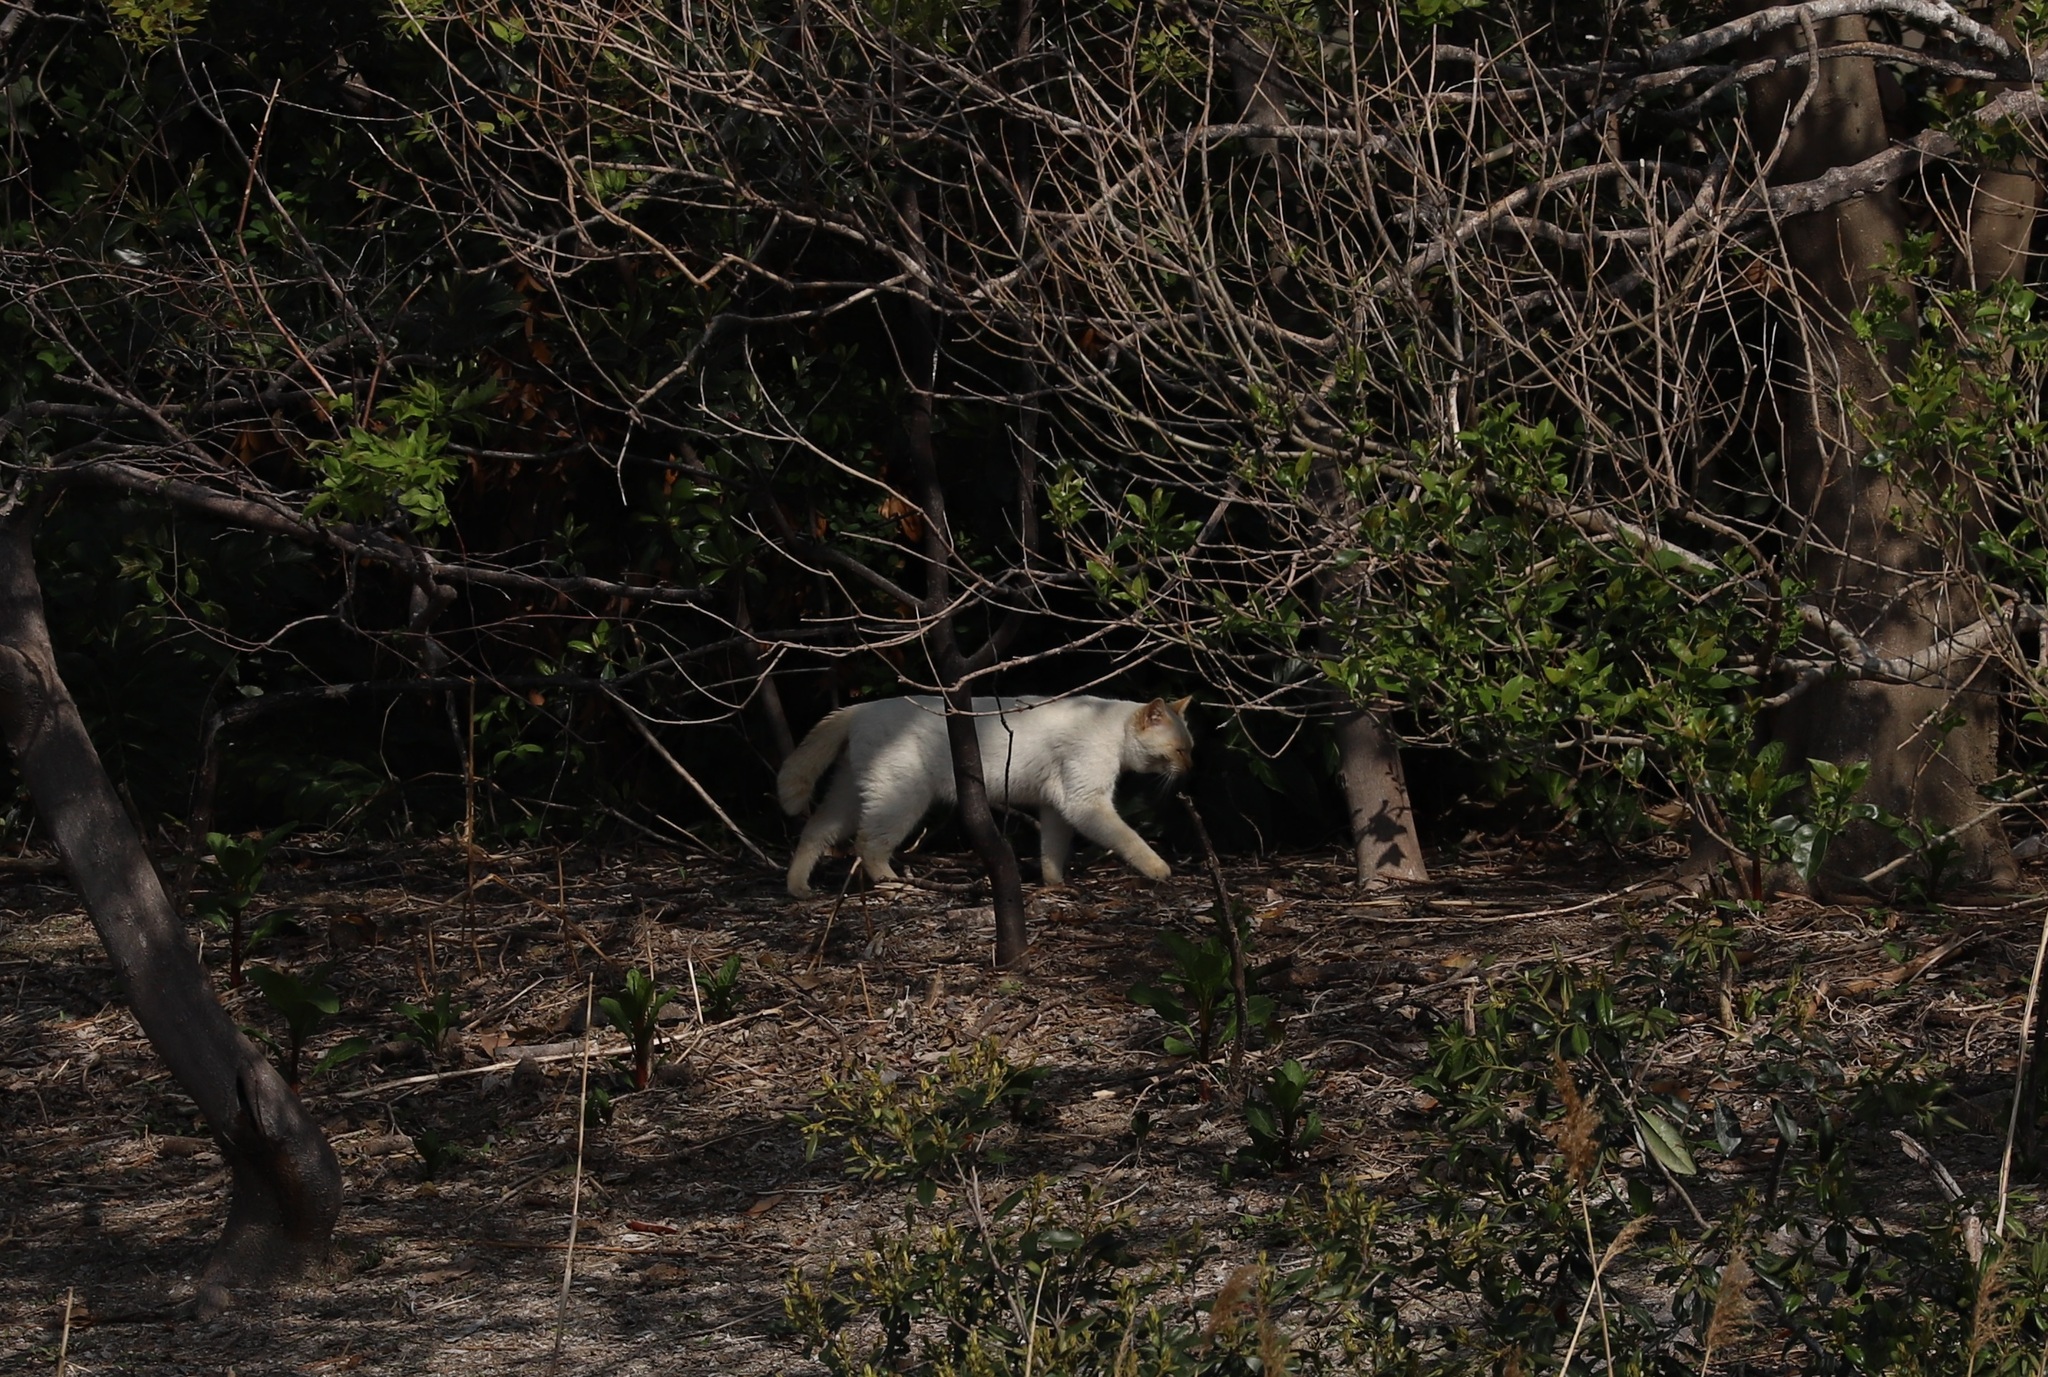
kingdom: Animalia
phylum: Chordata
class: Mammalia
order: Carnivora
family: Felidae
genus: Felis
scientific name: Felis catus
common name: Domestic cat
